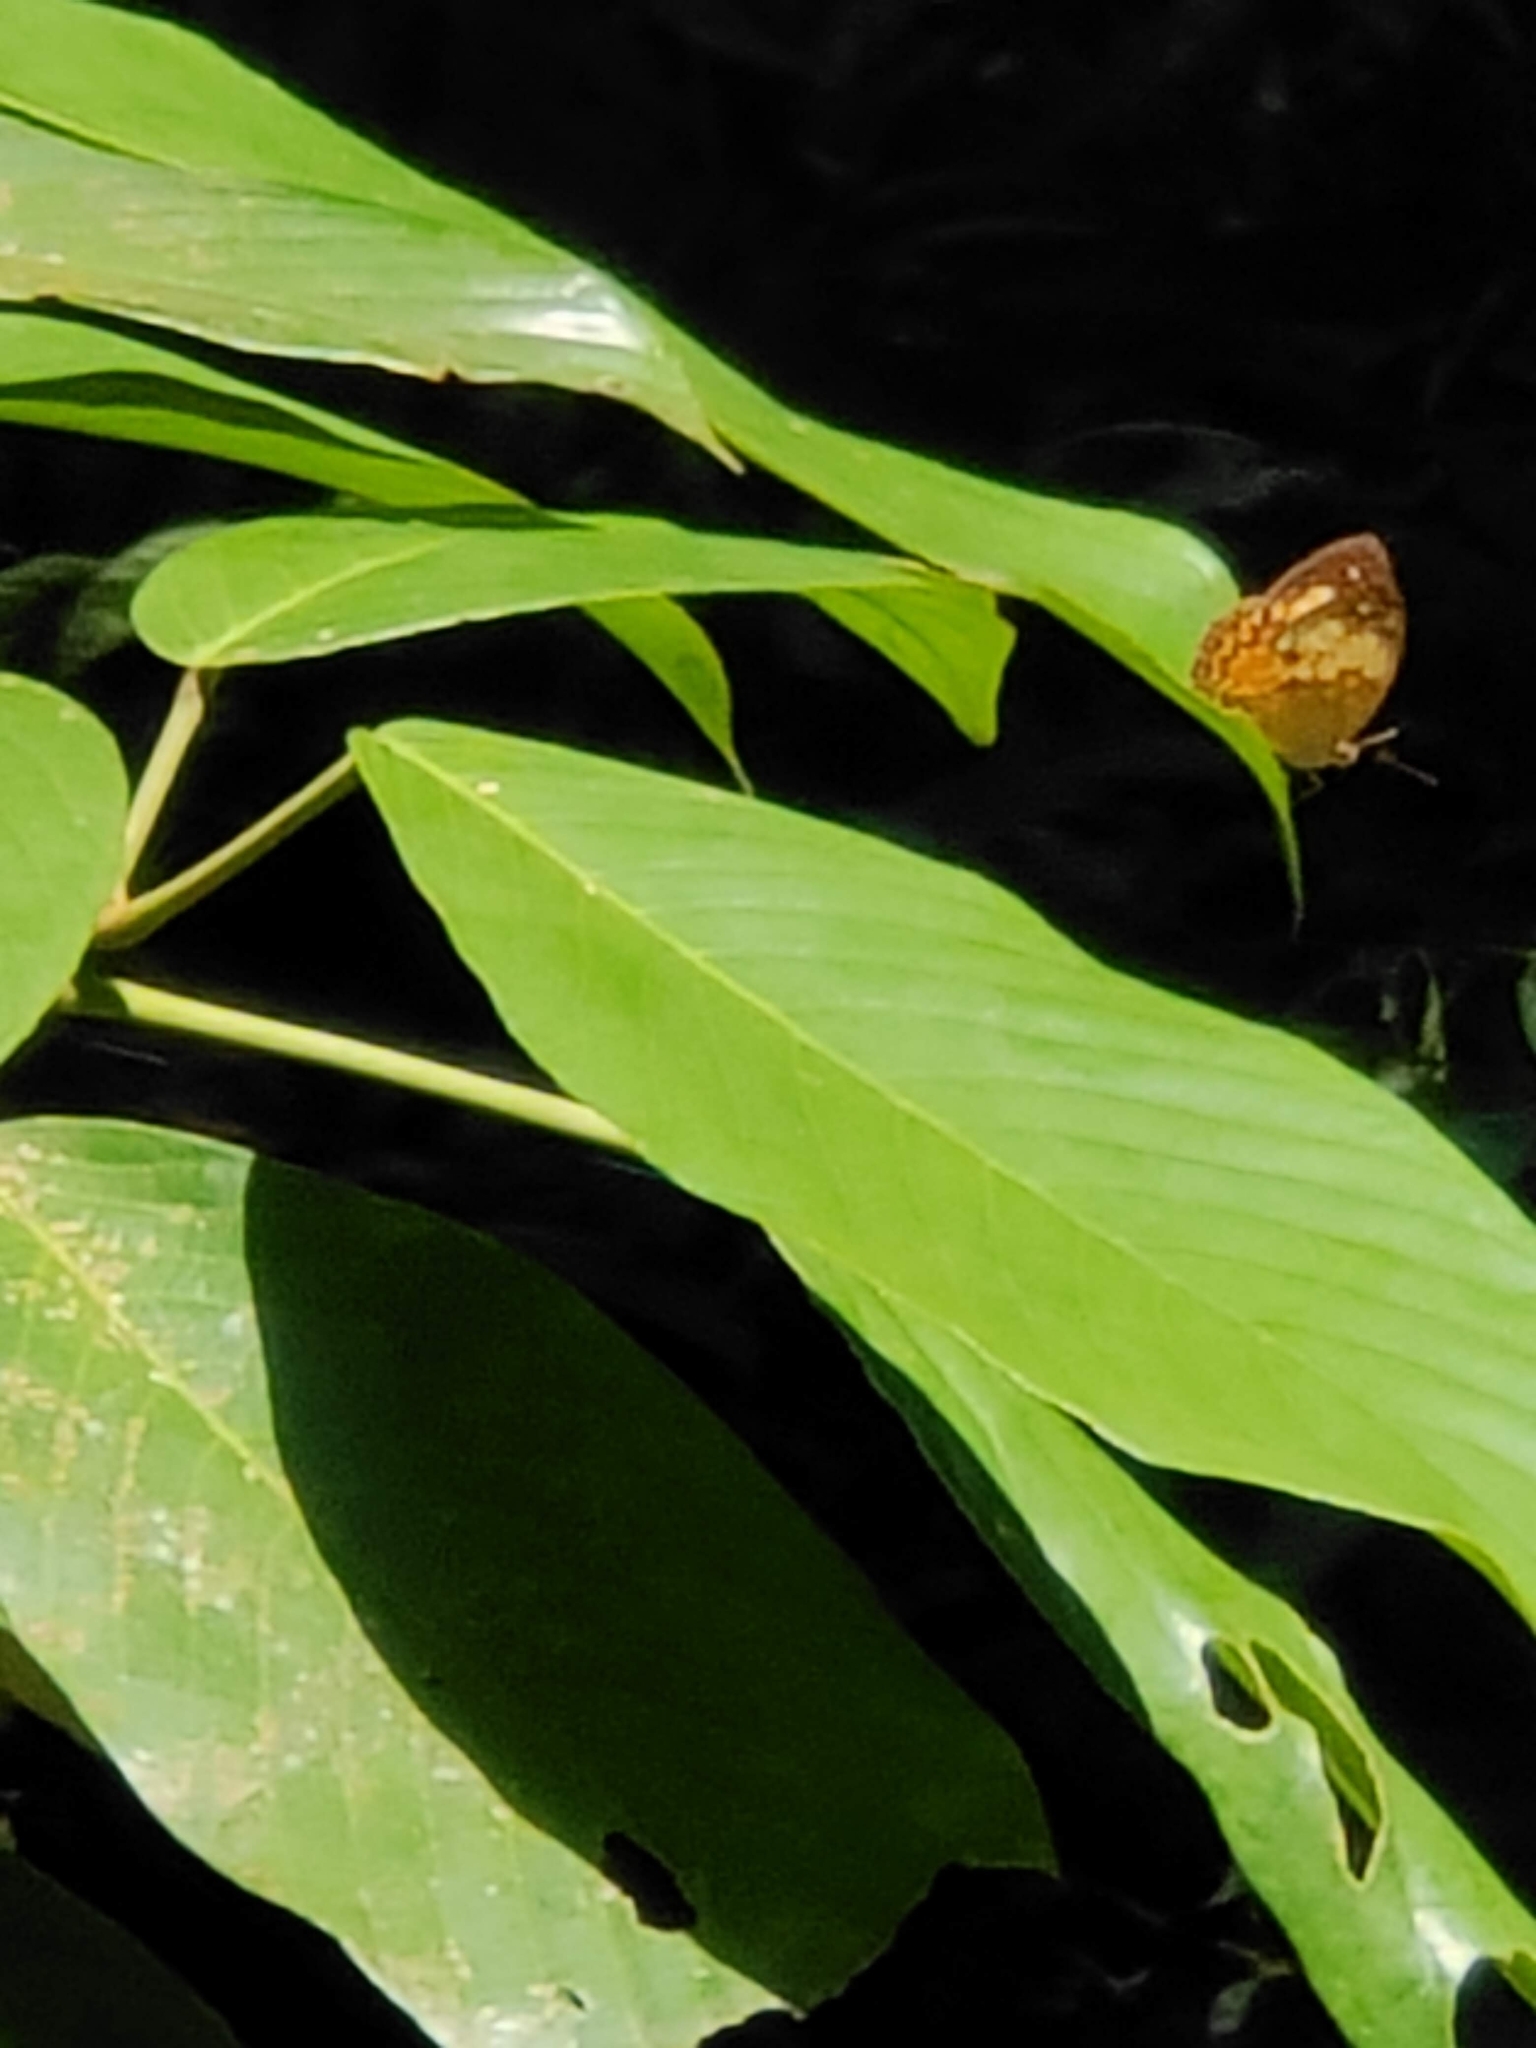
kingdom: Animalia
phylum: Arthropoda
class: Insecta
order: Lepidoptera
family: Nymphalidae
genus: Cupha
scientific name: Cupha erymanthis
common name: Rustic
